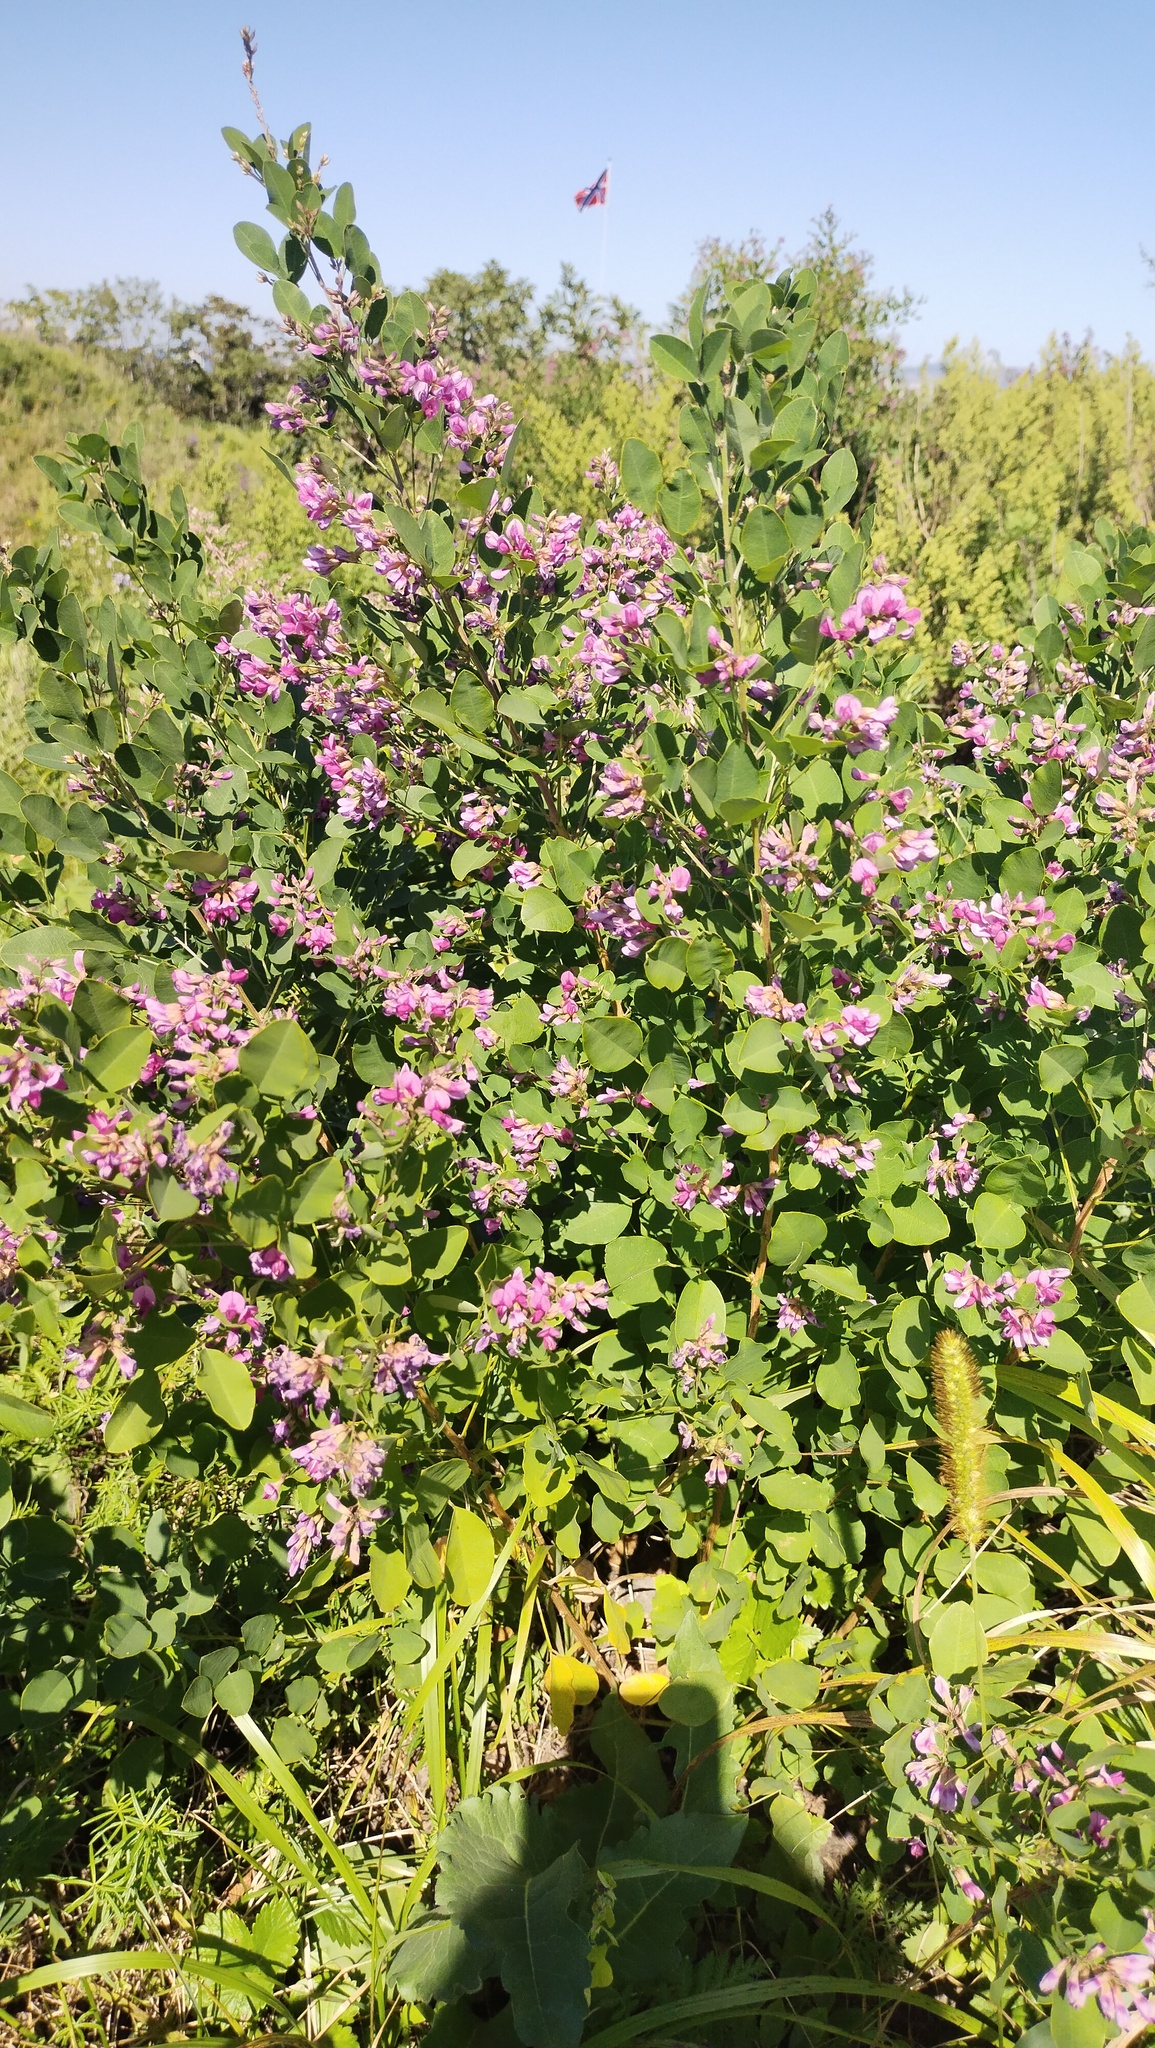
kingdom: Plantae
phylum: Tracheophyta
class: Magnoliopsida
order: Fabales
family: Fabaceae
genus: Lespedeza
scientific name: Lespedeza bicolor
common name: Shrub lespedeza
